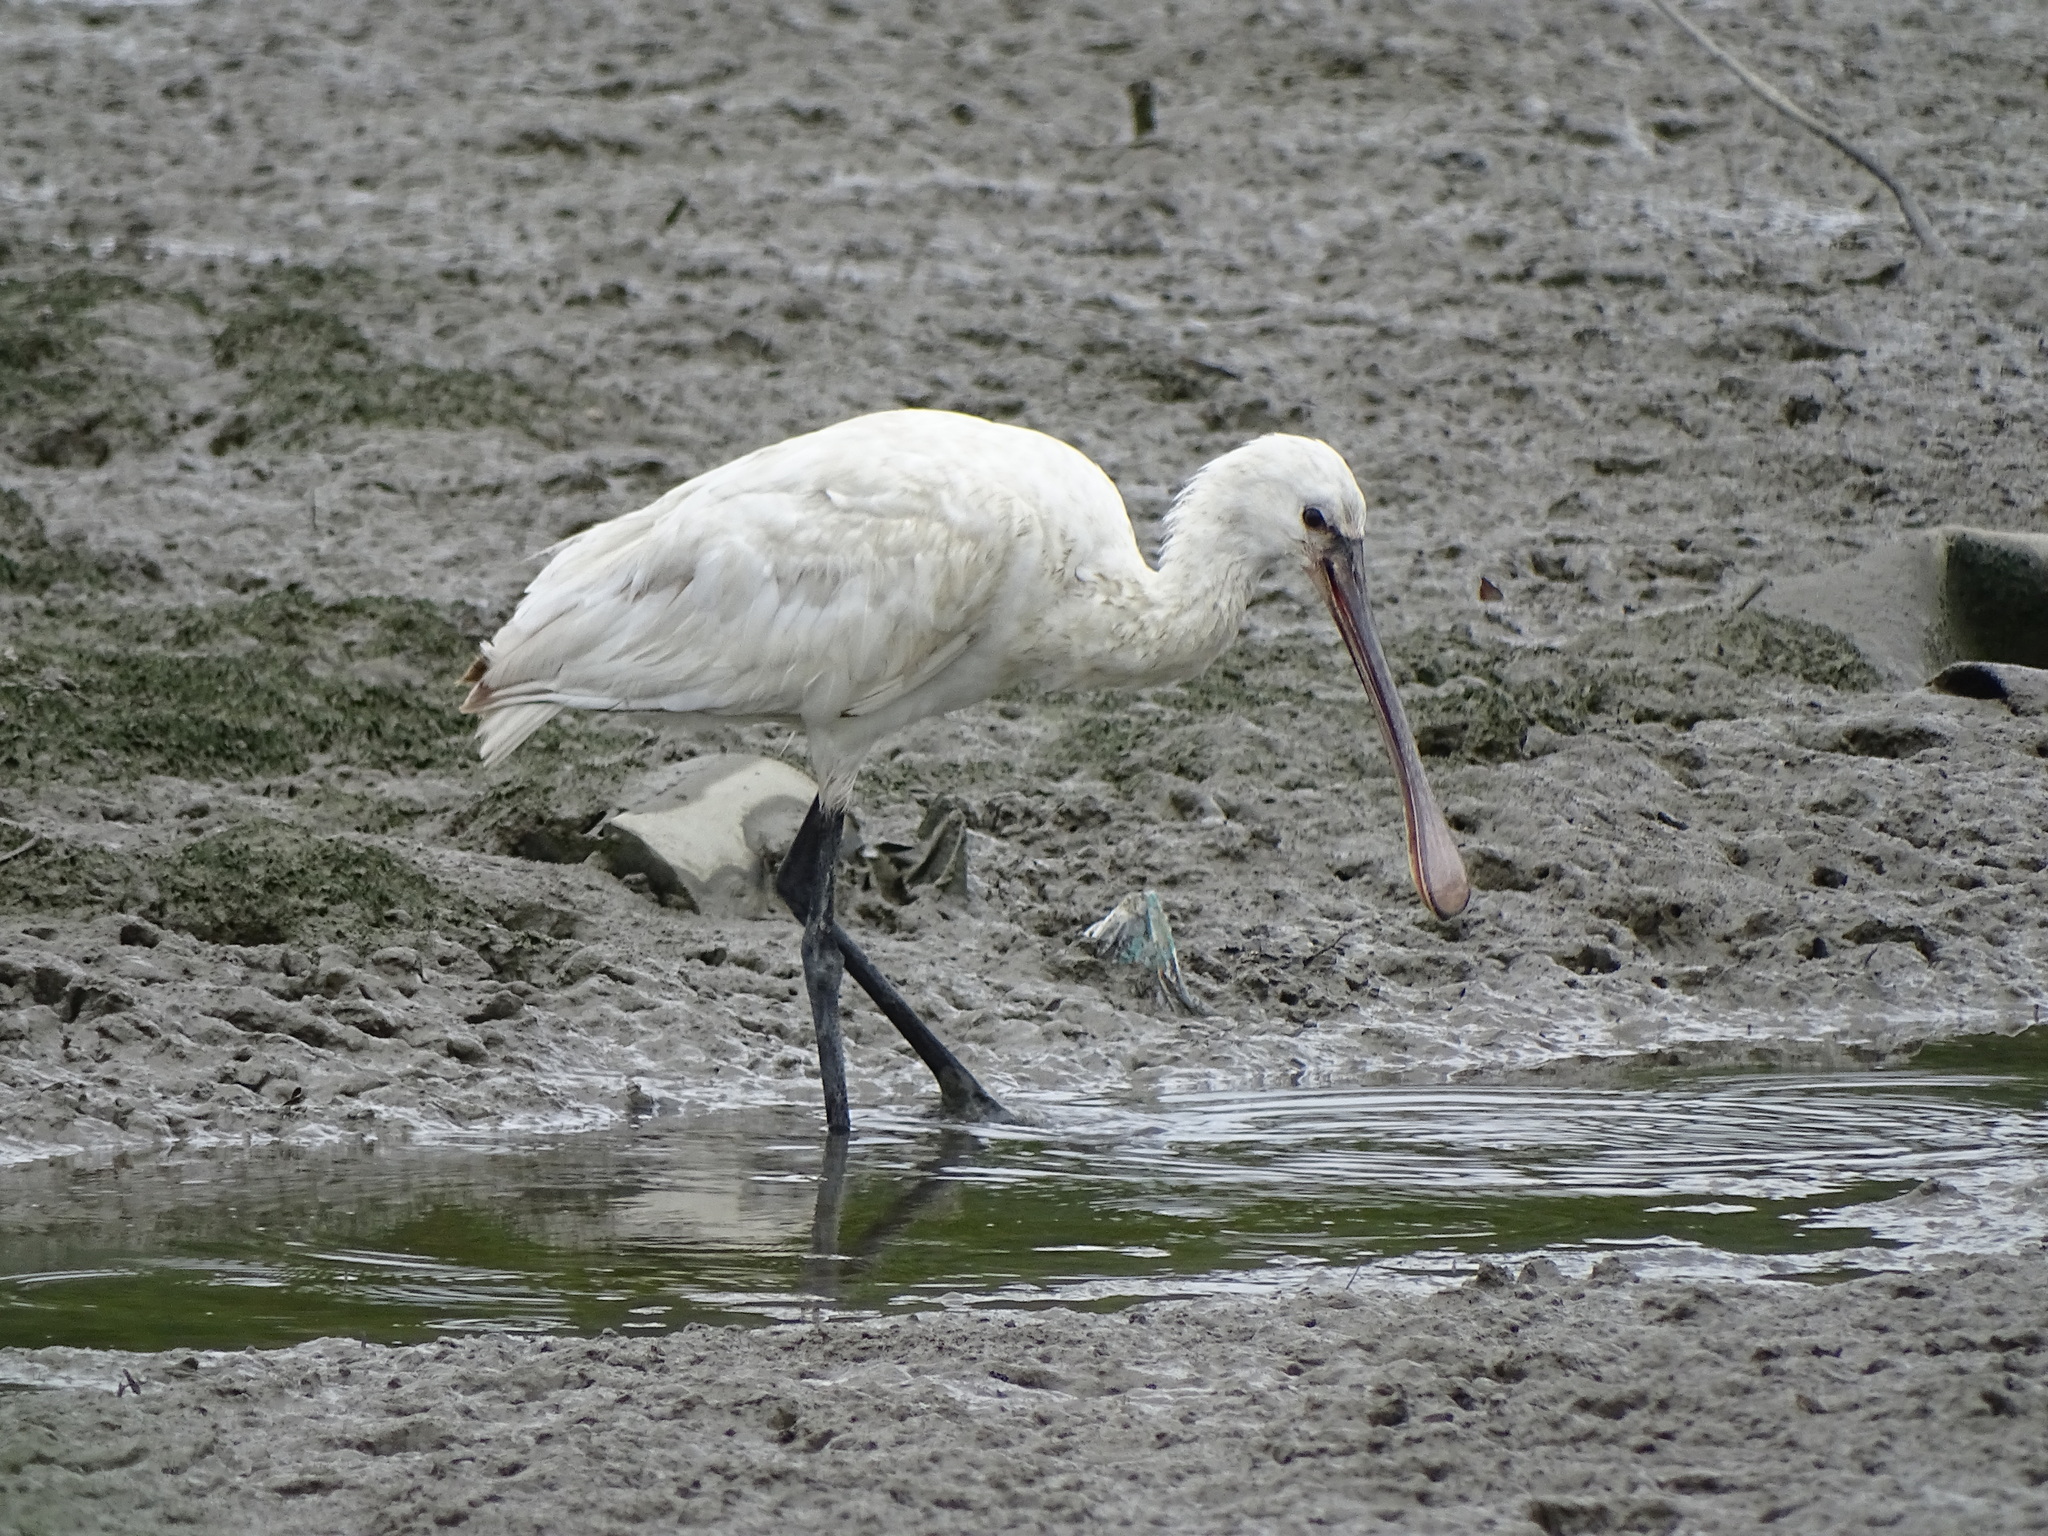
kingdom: Animalia
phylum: Chordata
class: Aves
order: Pelecaniformes
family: Threskiornithidae
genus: Platalea
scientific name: Platalea leucorodia
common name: Eurasian spoonbill
